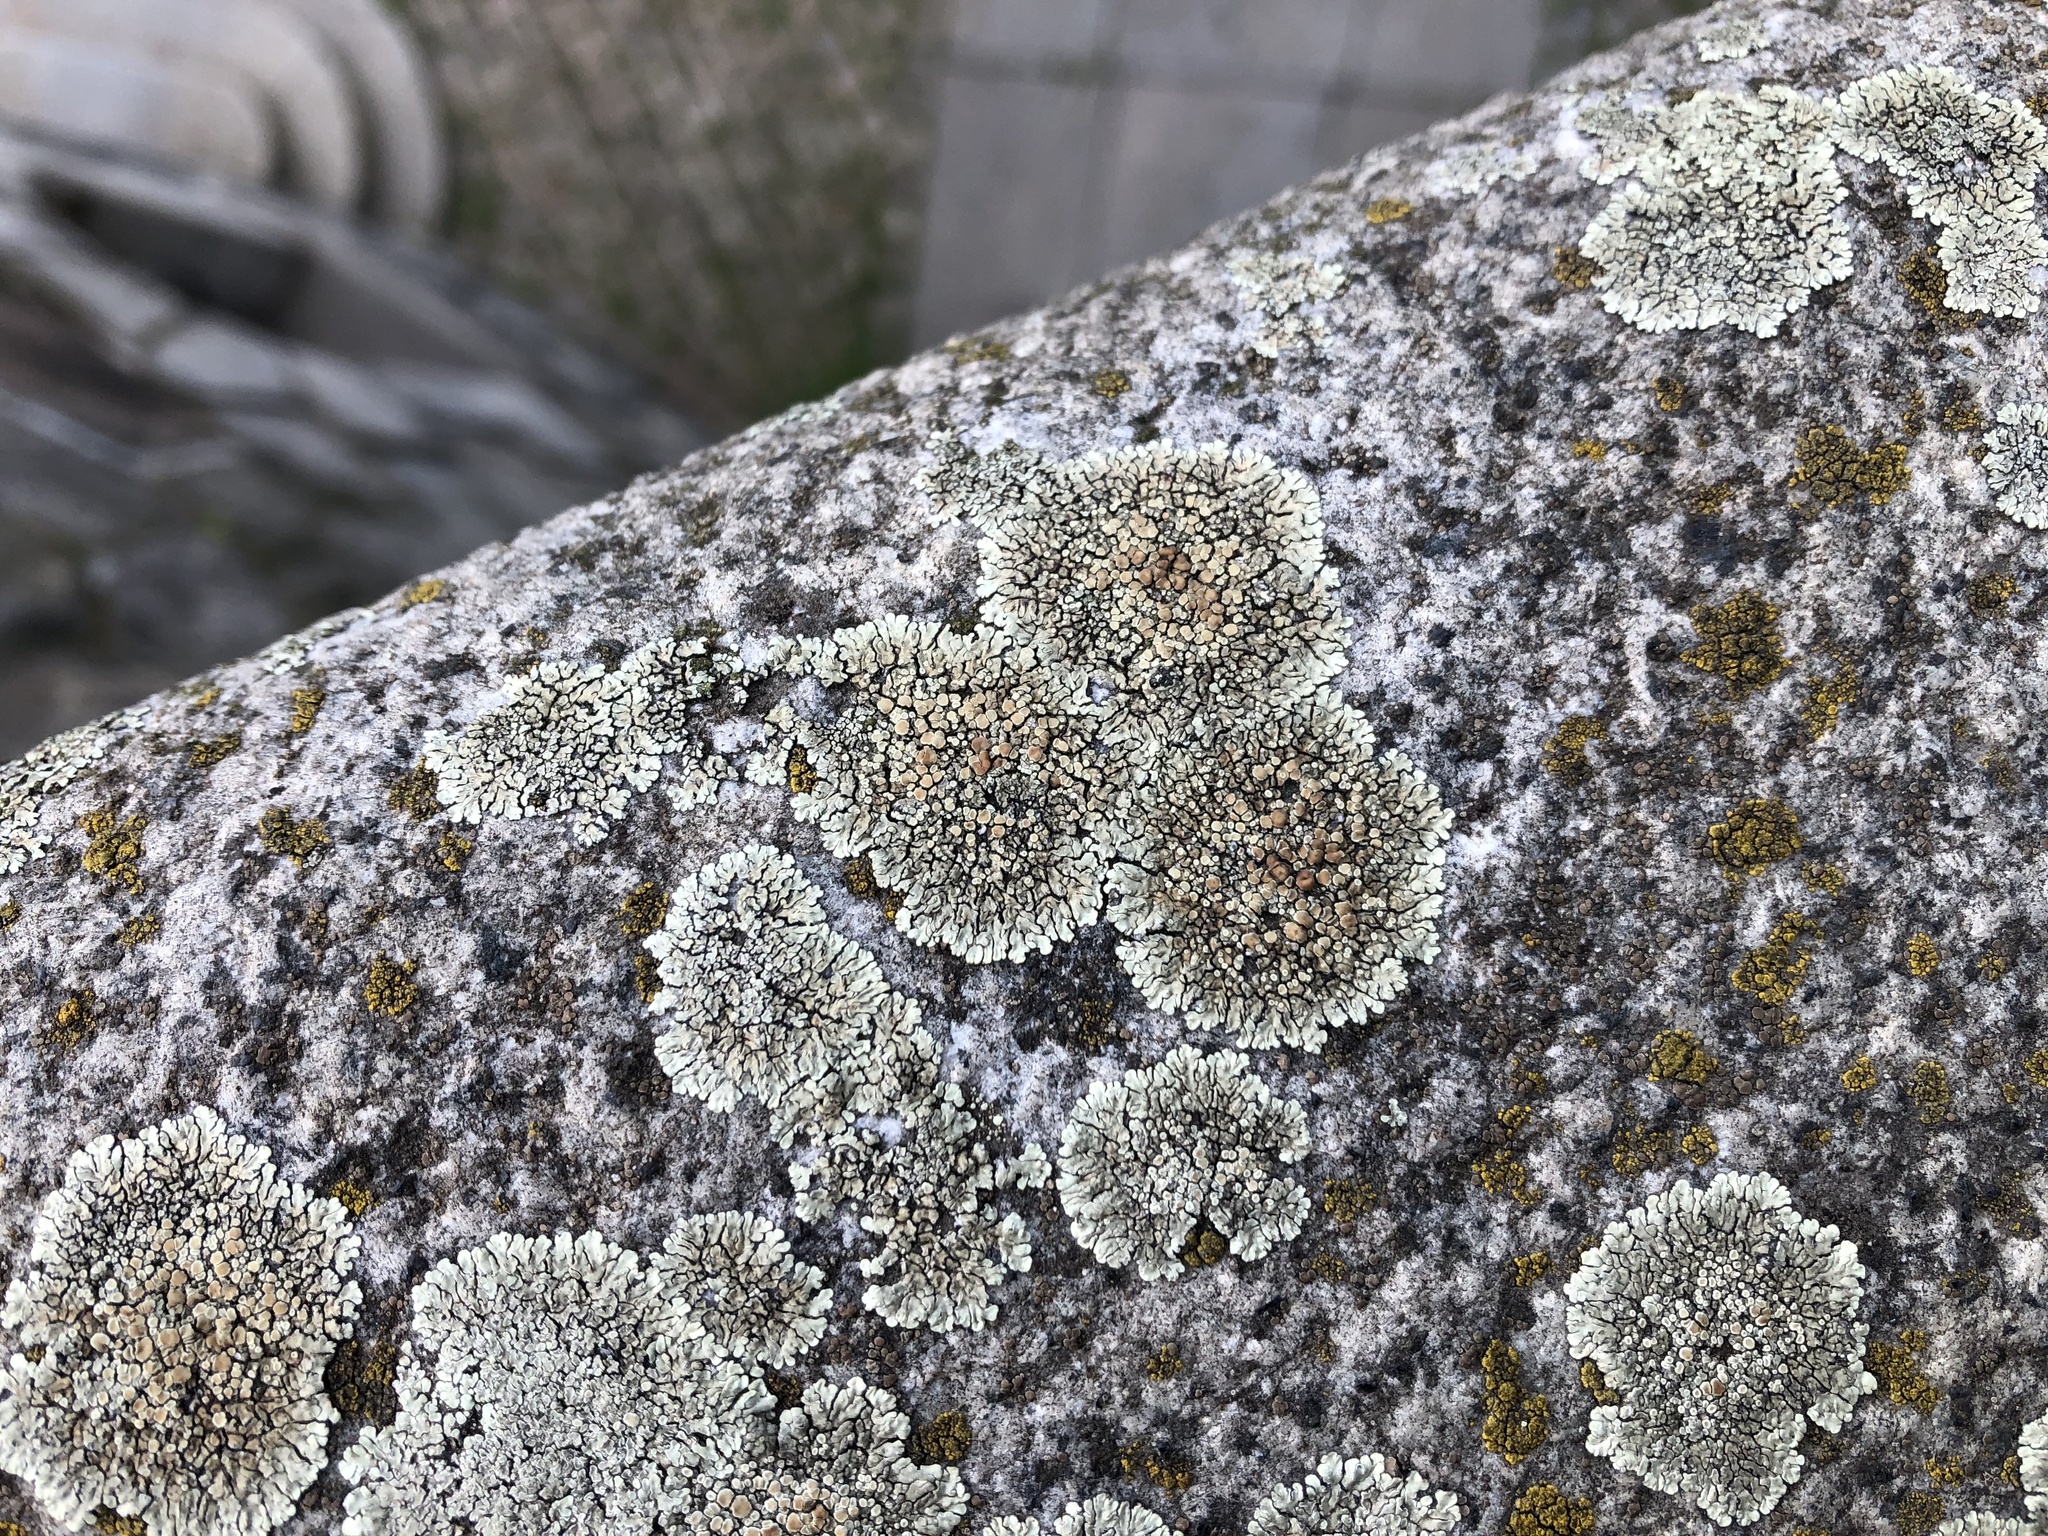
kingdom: Fungi
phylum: Ascomycota
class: Lecanoromycetes
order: Lecanorales
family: Lecanoraceae
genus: Protoparmeliopsis
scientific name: Protoparmeliopsis muralis
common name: Stonewall rim lichen
